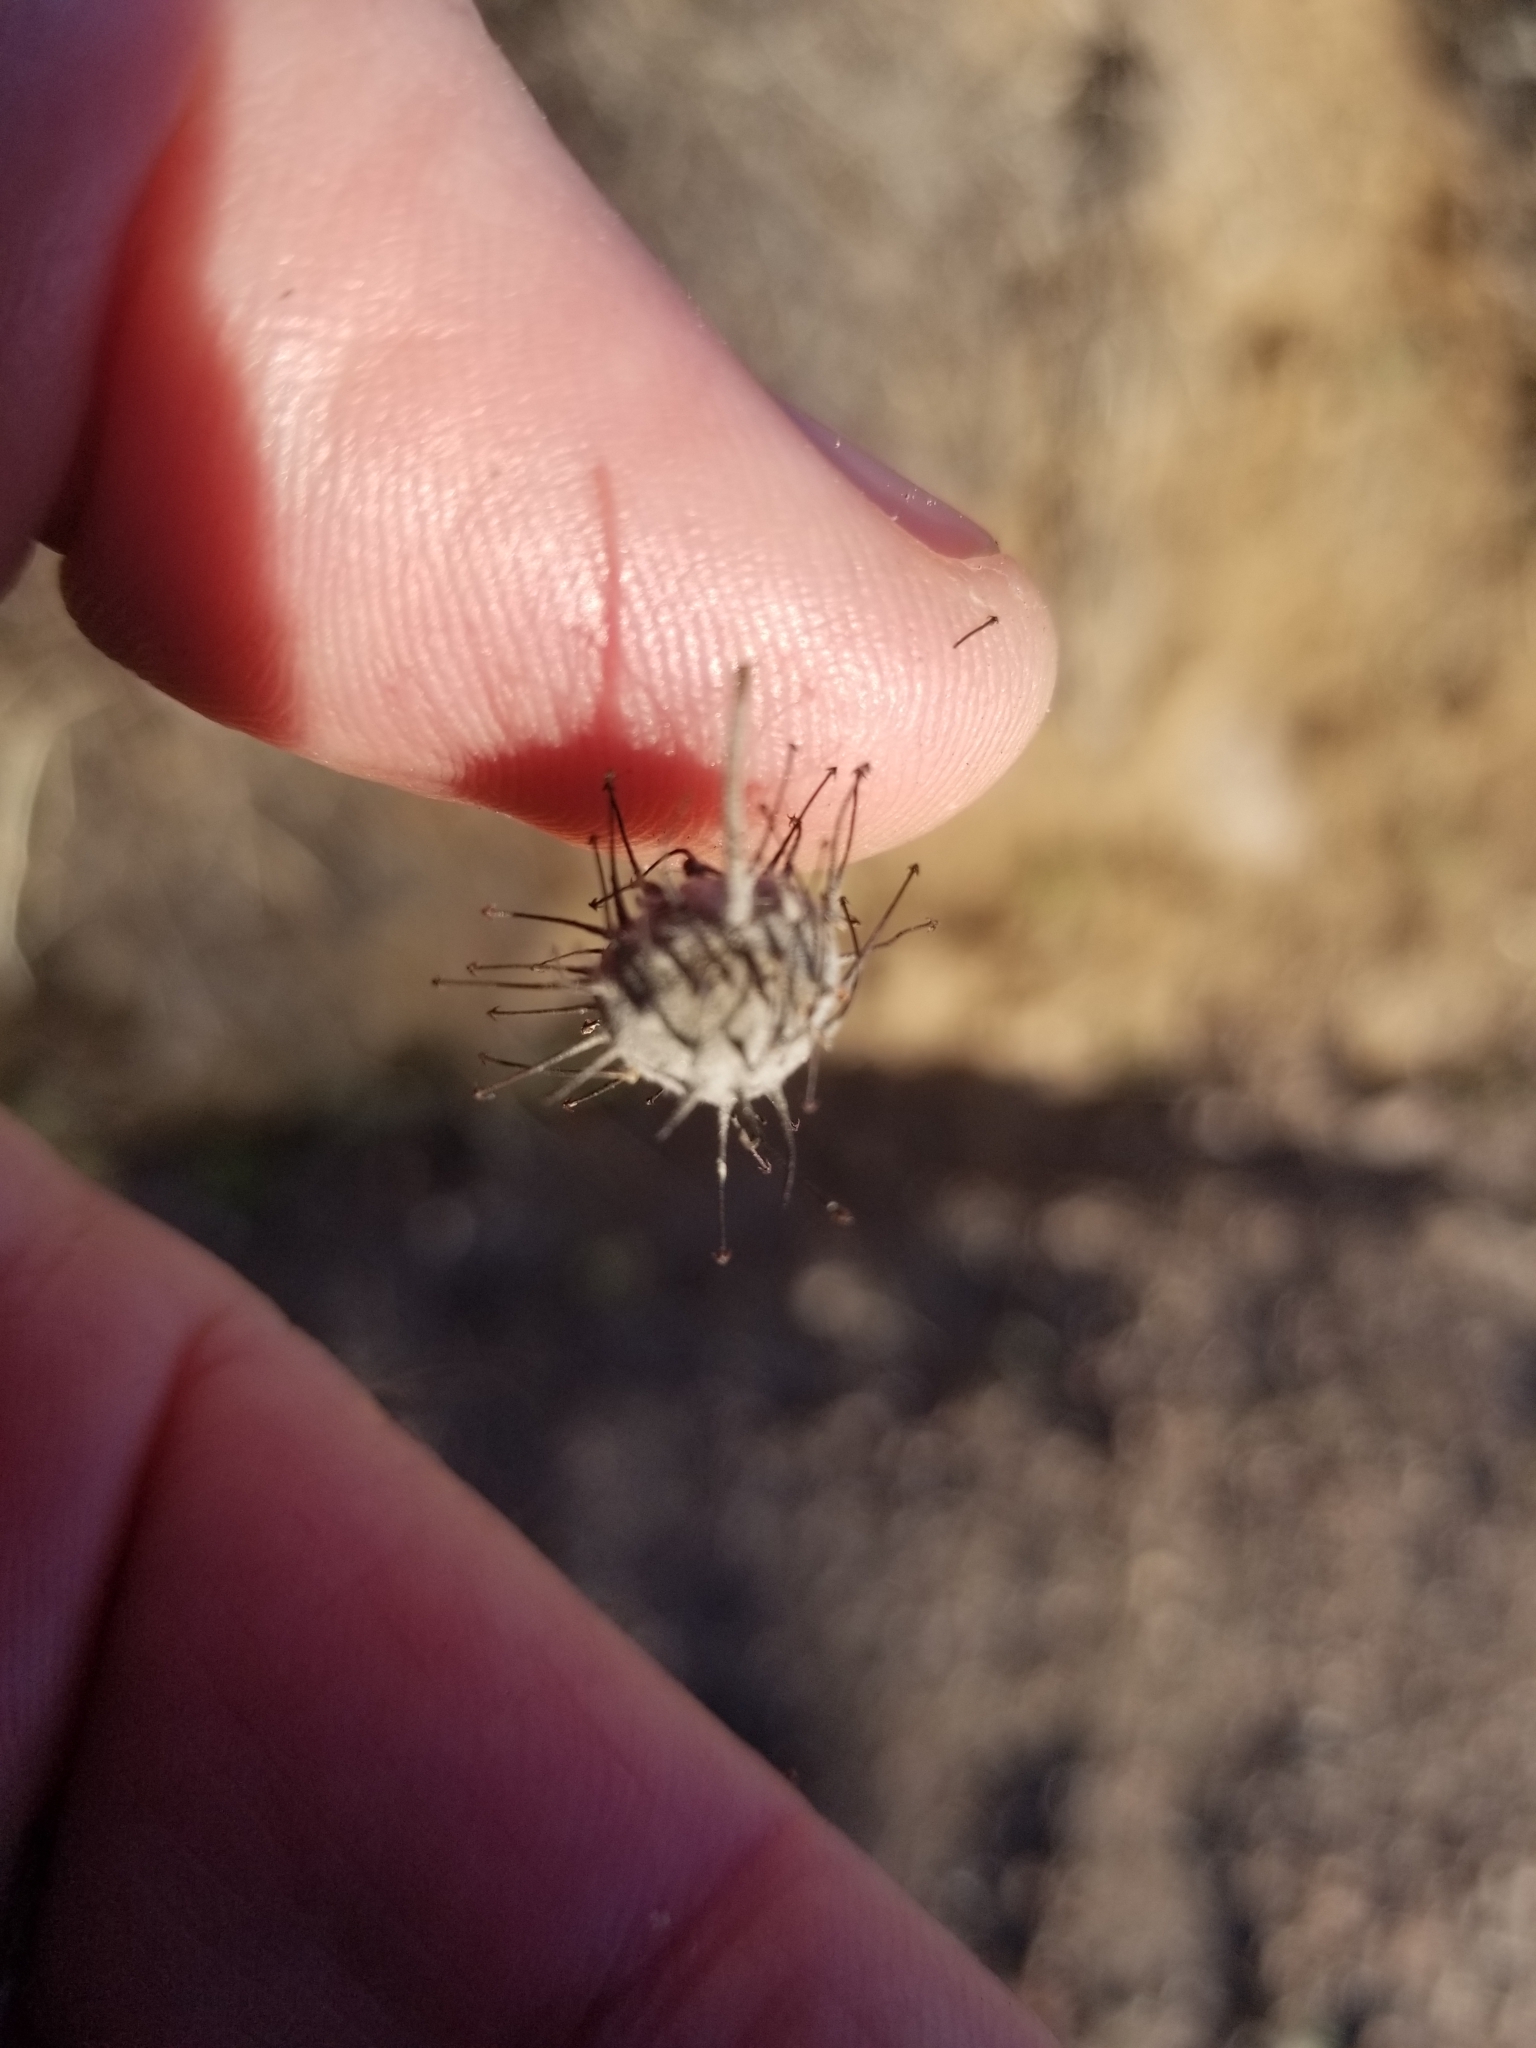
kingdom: Plantae
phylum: Tracheophyta
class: Magnoliopsida
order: Zygophyllales
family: Krameriaceae
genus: Krameria
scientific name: Krameria bicolor
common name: White ratany
